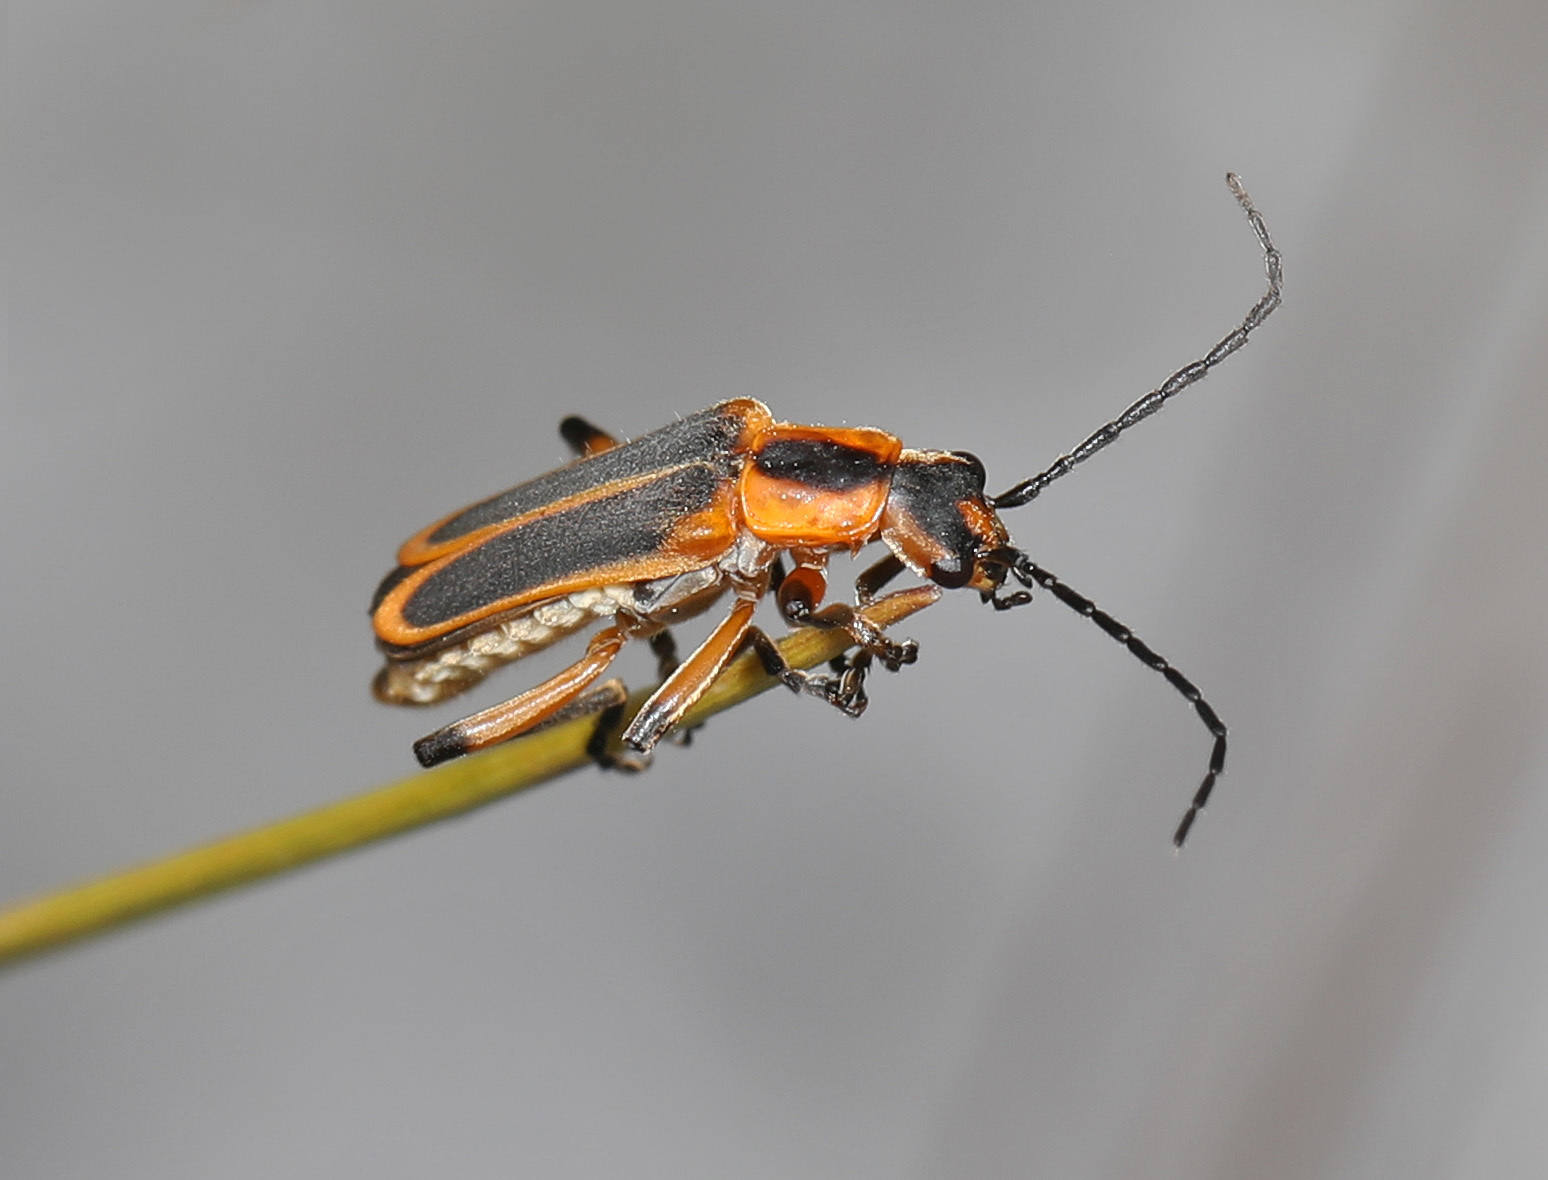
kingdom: Animalia
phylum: Arthropoda
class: Insecta
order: Coleoptera
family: Cantharidae
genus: Chauliognathus
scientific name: Chauliognathus marginatus
